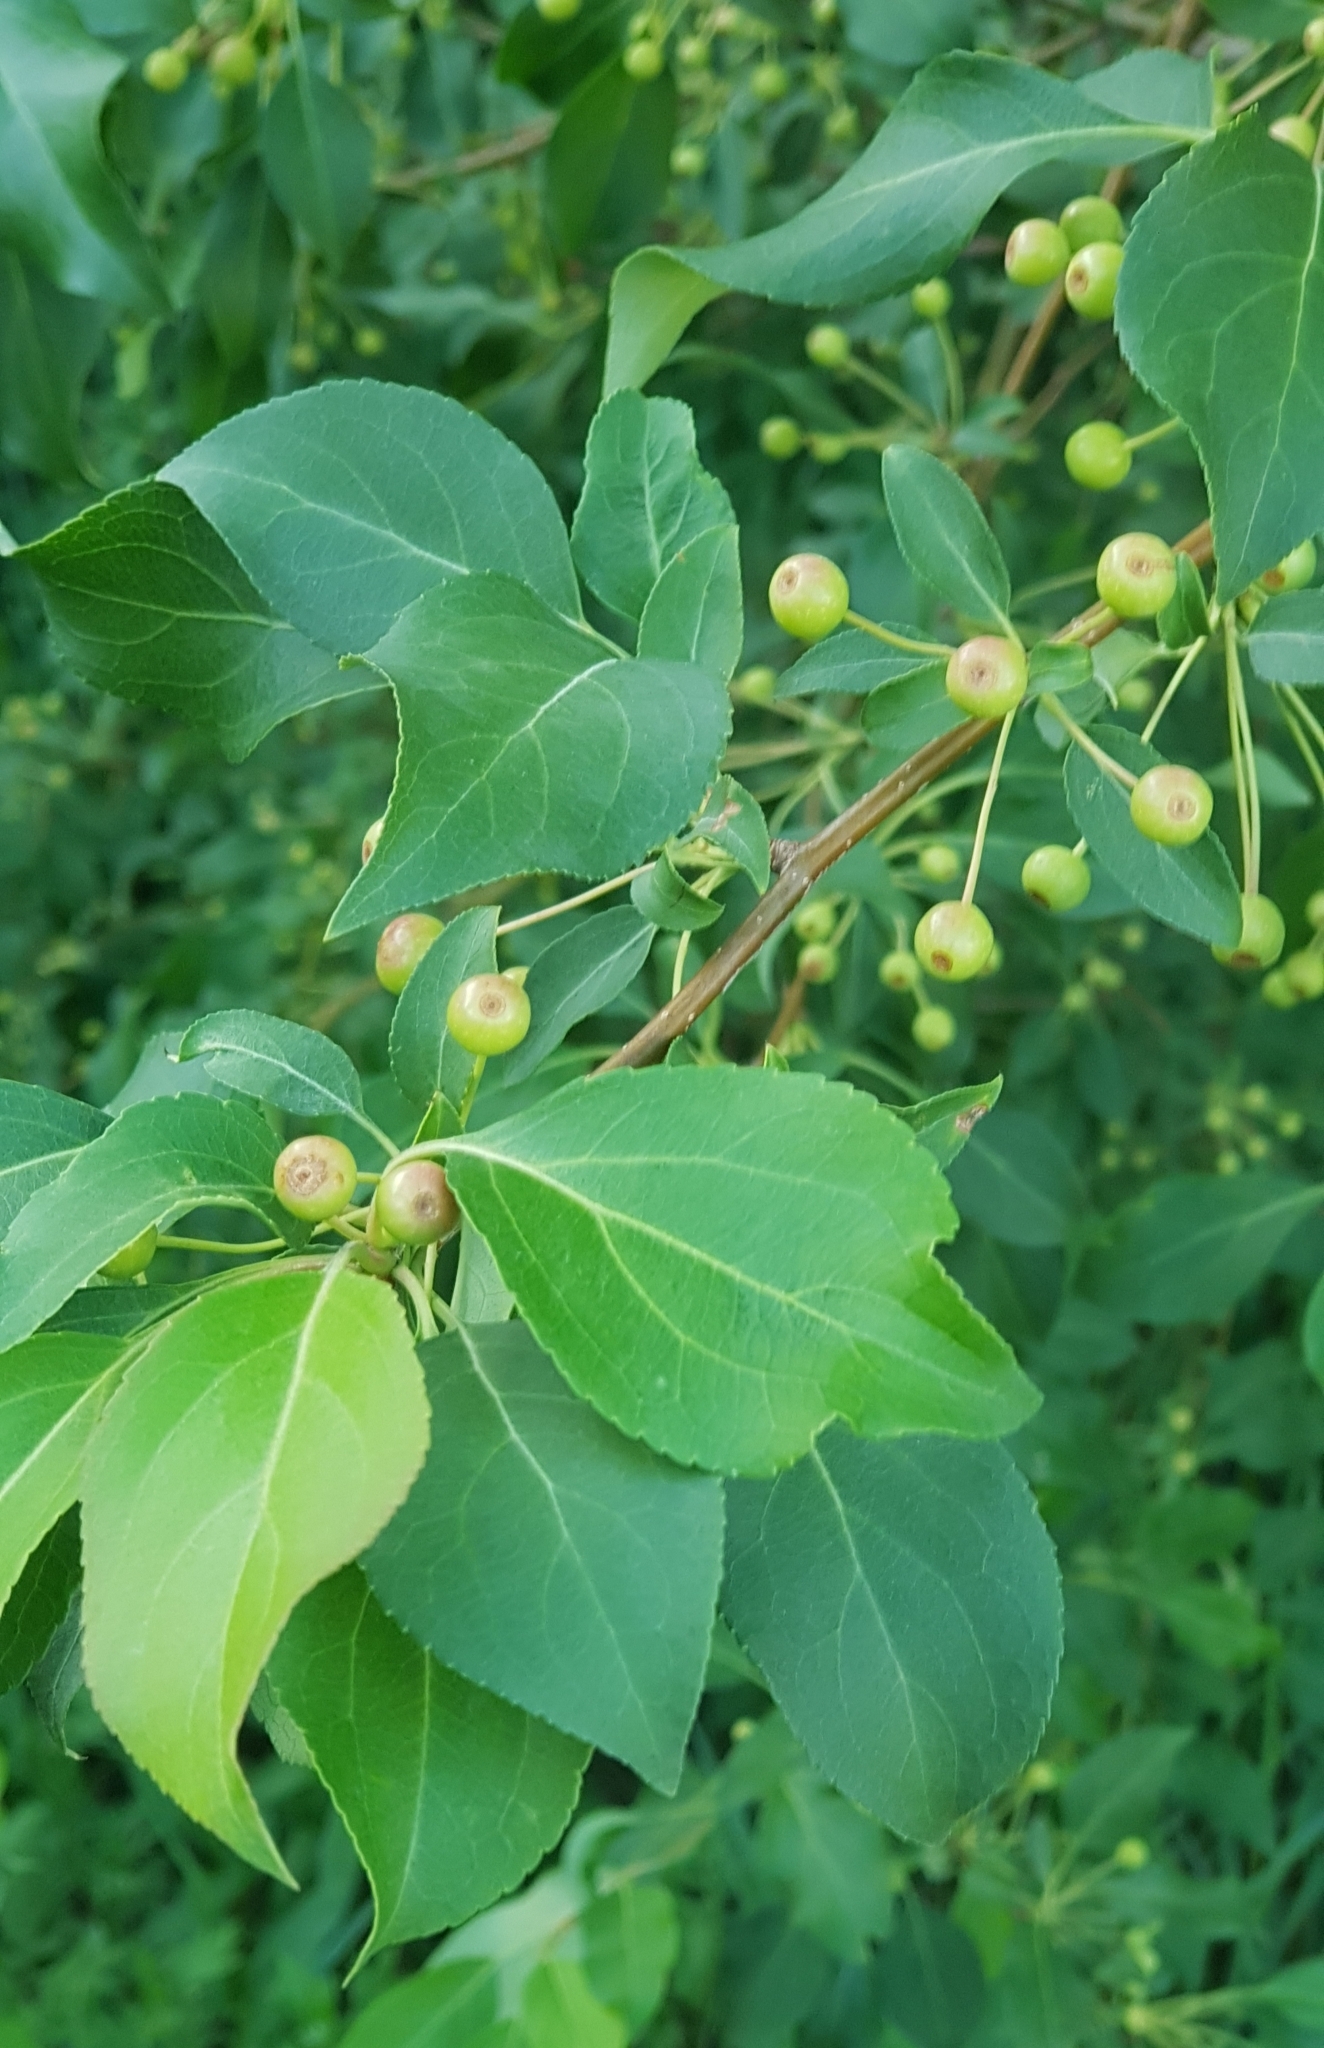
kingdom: Plantae
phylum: Tracheophyta
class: Magnoliopsida
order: Rosales
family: Rosaceae
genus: Malus
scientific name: Malus baccata
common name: Siberian crab
